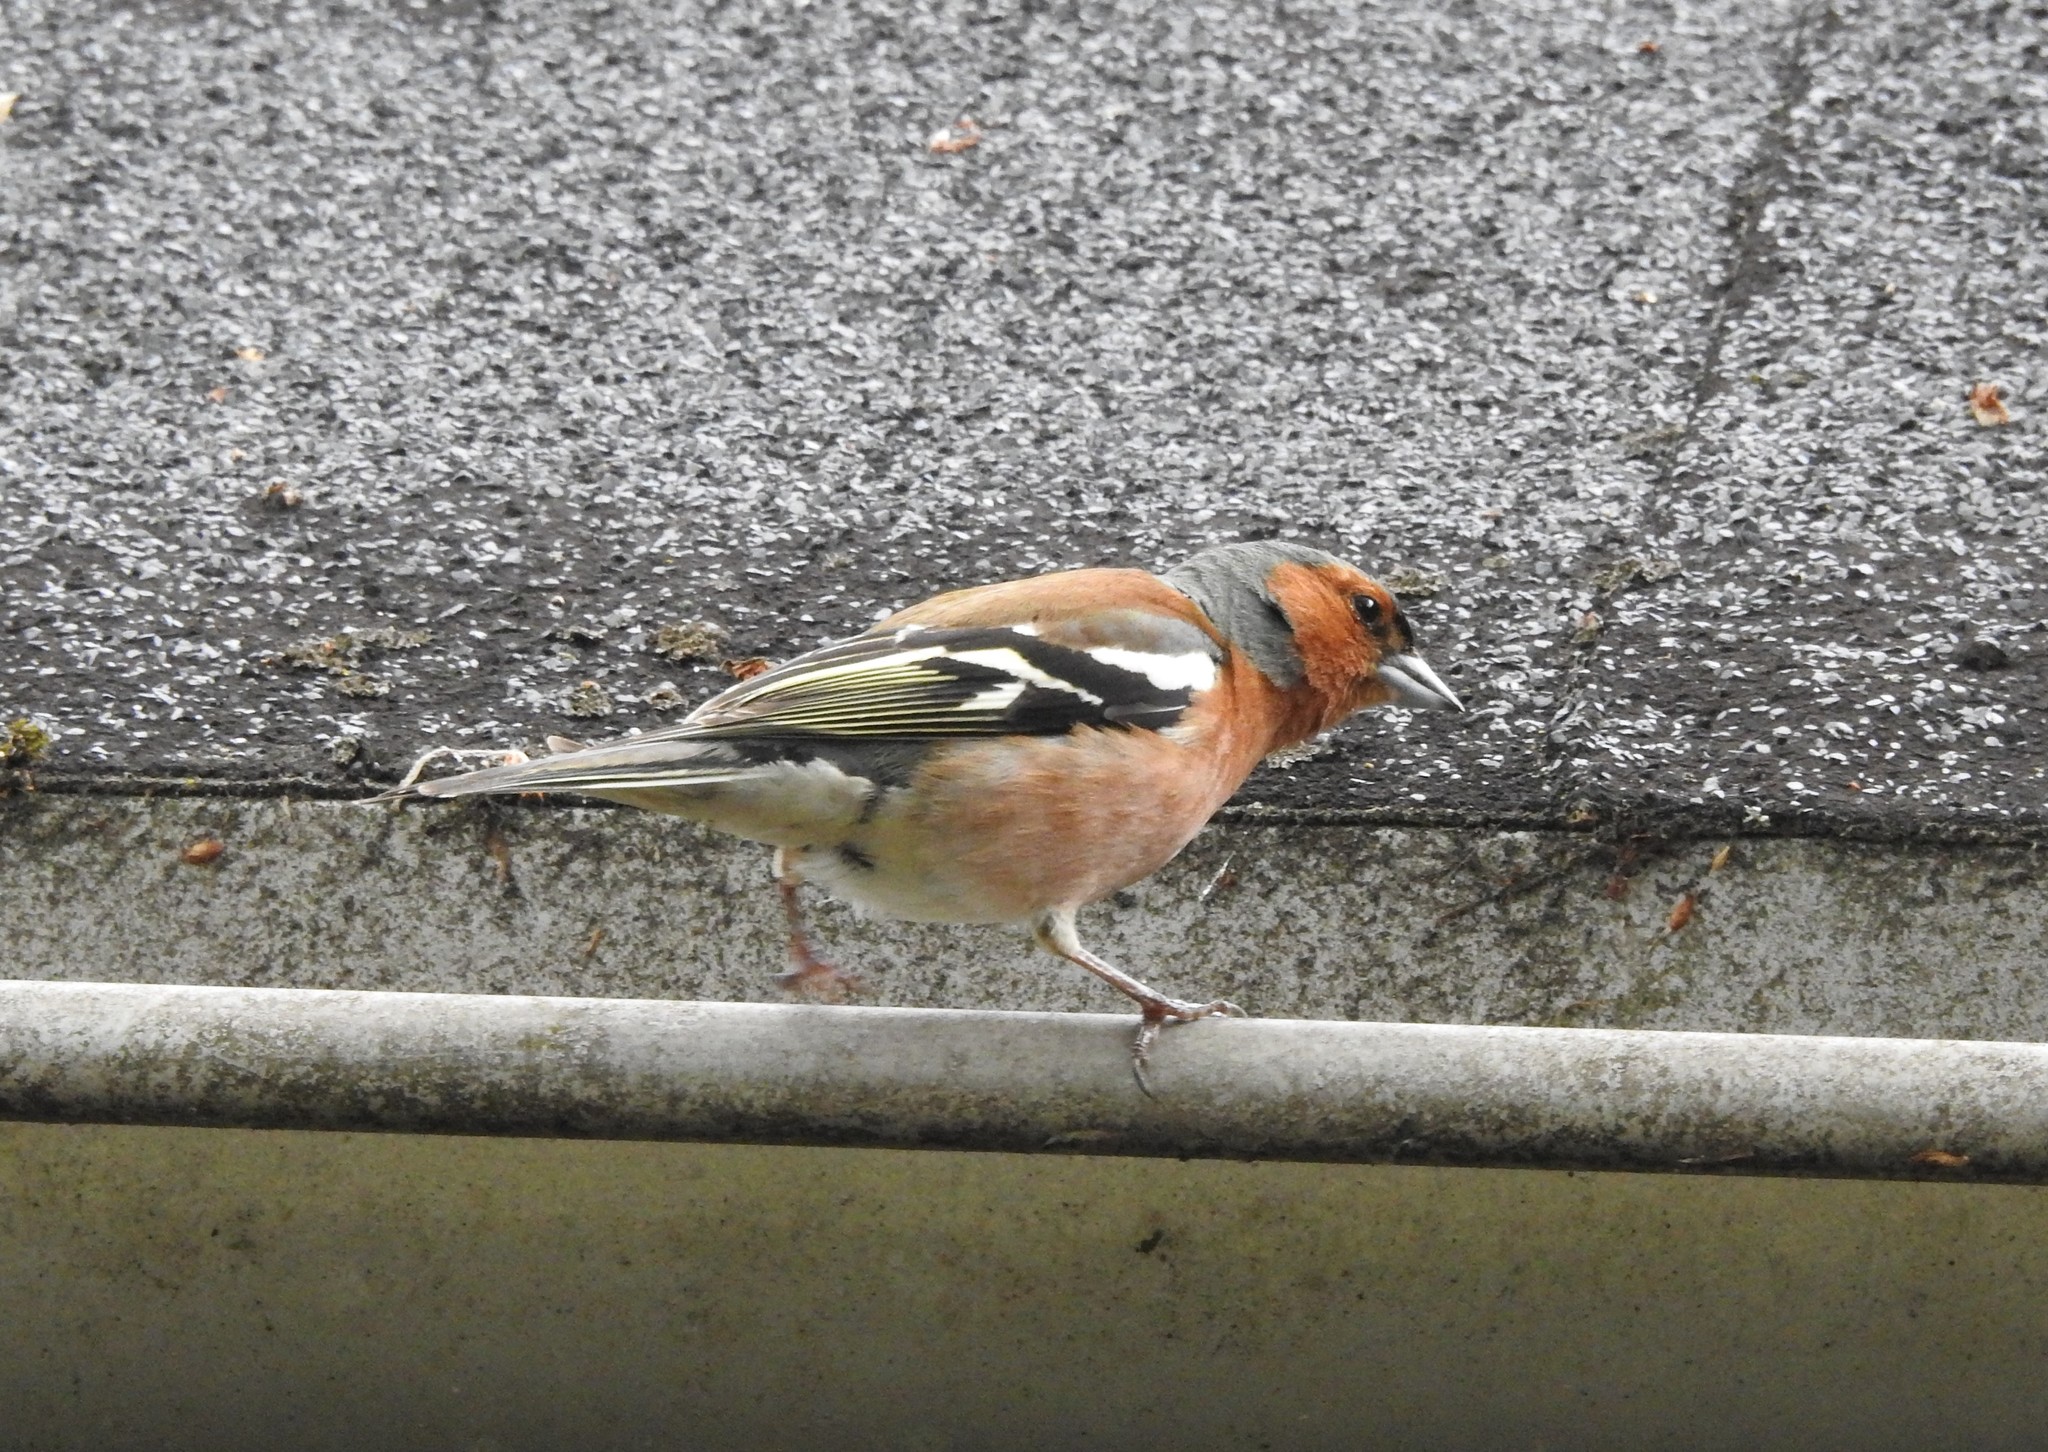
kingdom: Animalia
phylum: Chordata
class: Aves
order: Passeriformes
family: Fringillidae
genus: Fringilla
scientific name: Fringilla coelebs
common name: Common chaffinch
